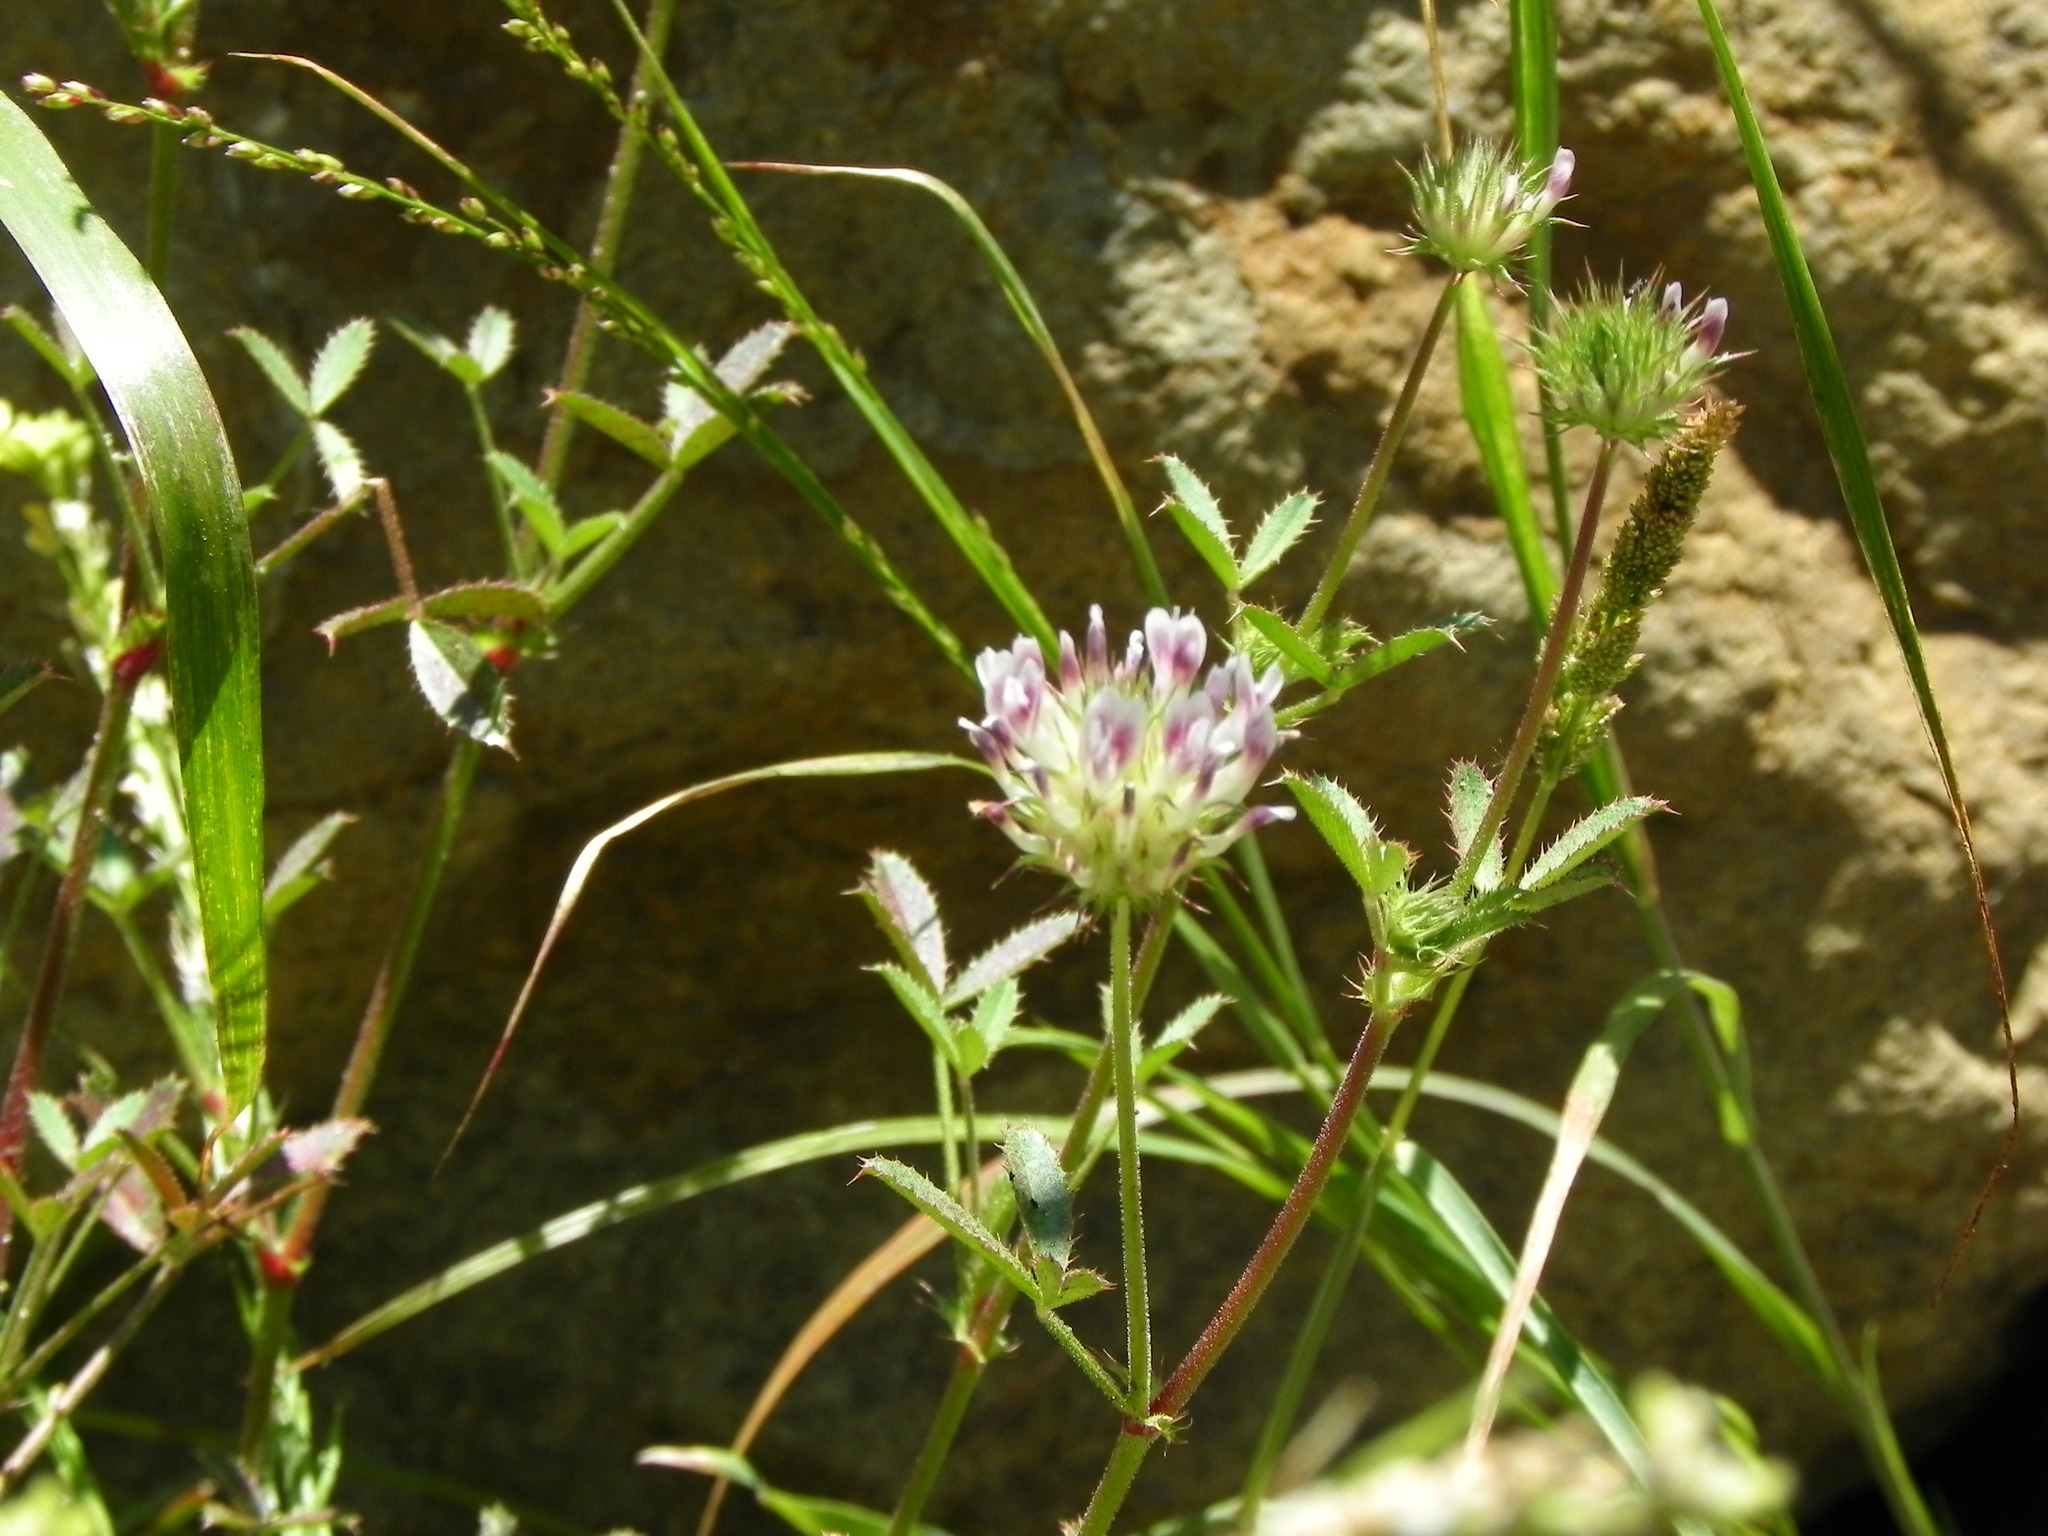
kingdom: Plantae
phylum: Tracheophyta
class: Magnoliopsida
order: Fabales
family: Fabaceae
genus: Trifolium
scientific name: Trifolium obtusiflorum
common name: Clammy clover
